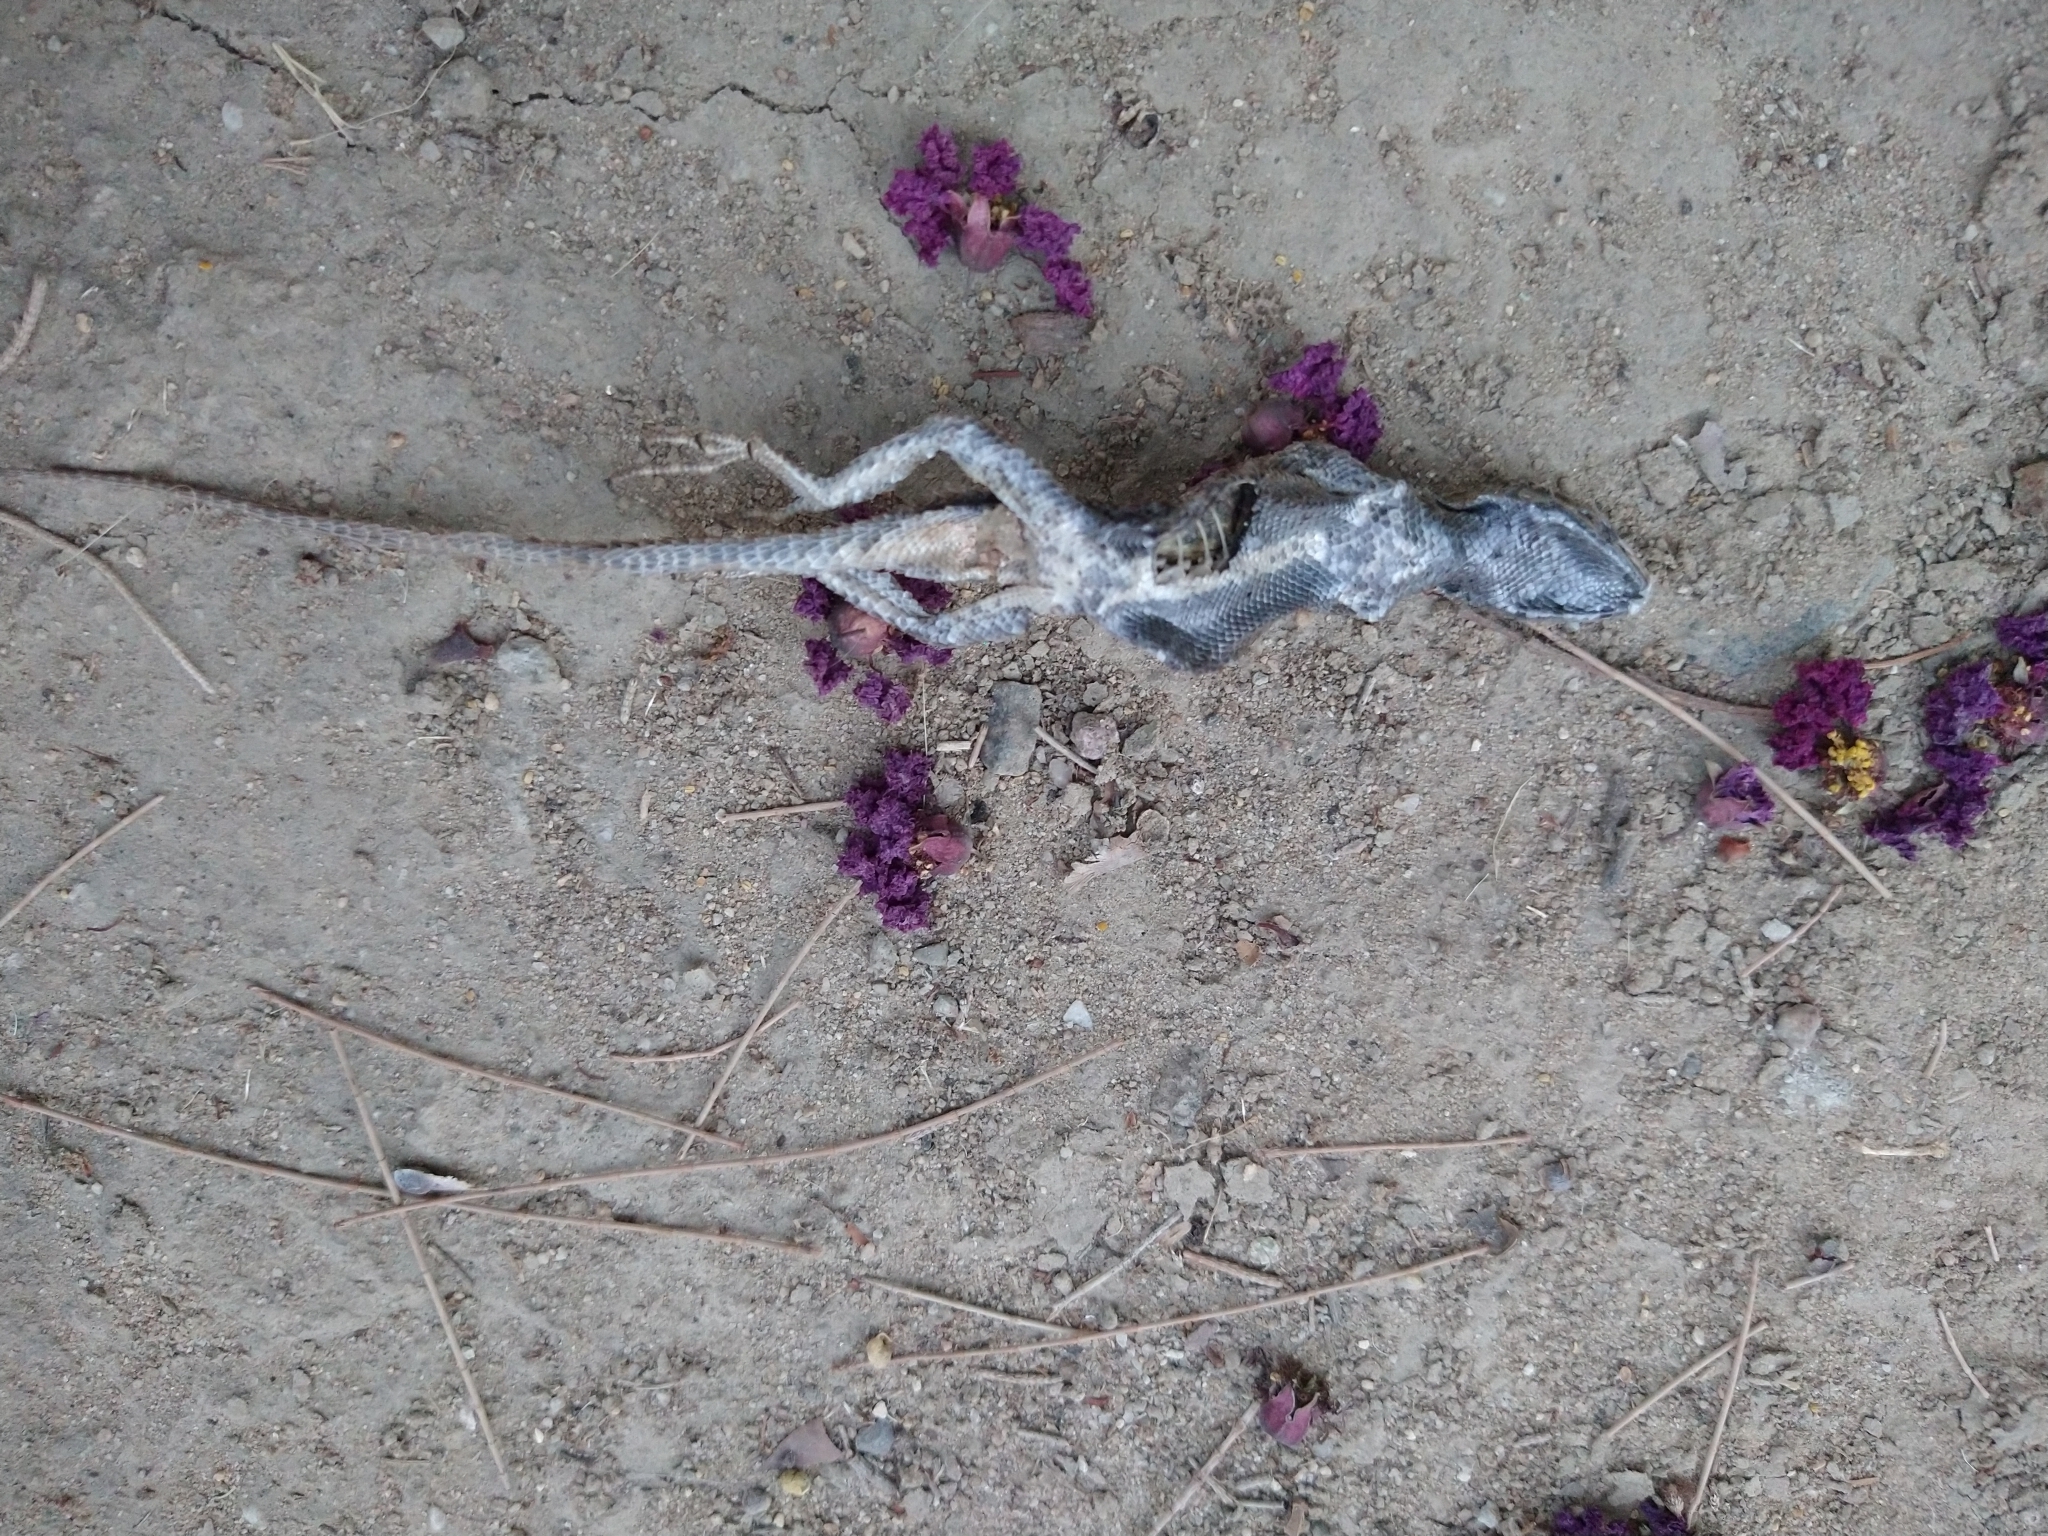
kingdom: Animalia
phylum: Chordata
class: Squamata
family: Phrynosomatidae
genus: Sceloporus
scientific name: Sceloporus occidentalis
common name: Western fence lizard
